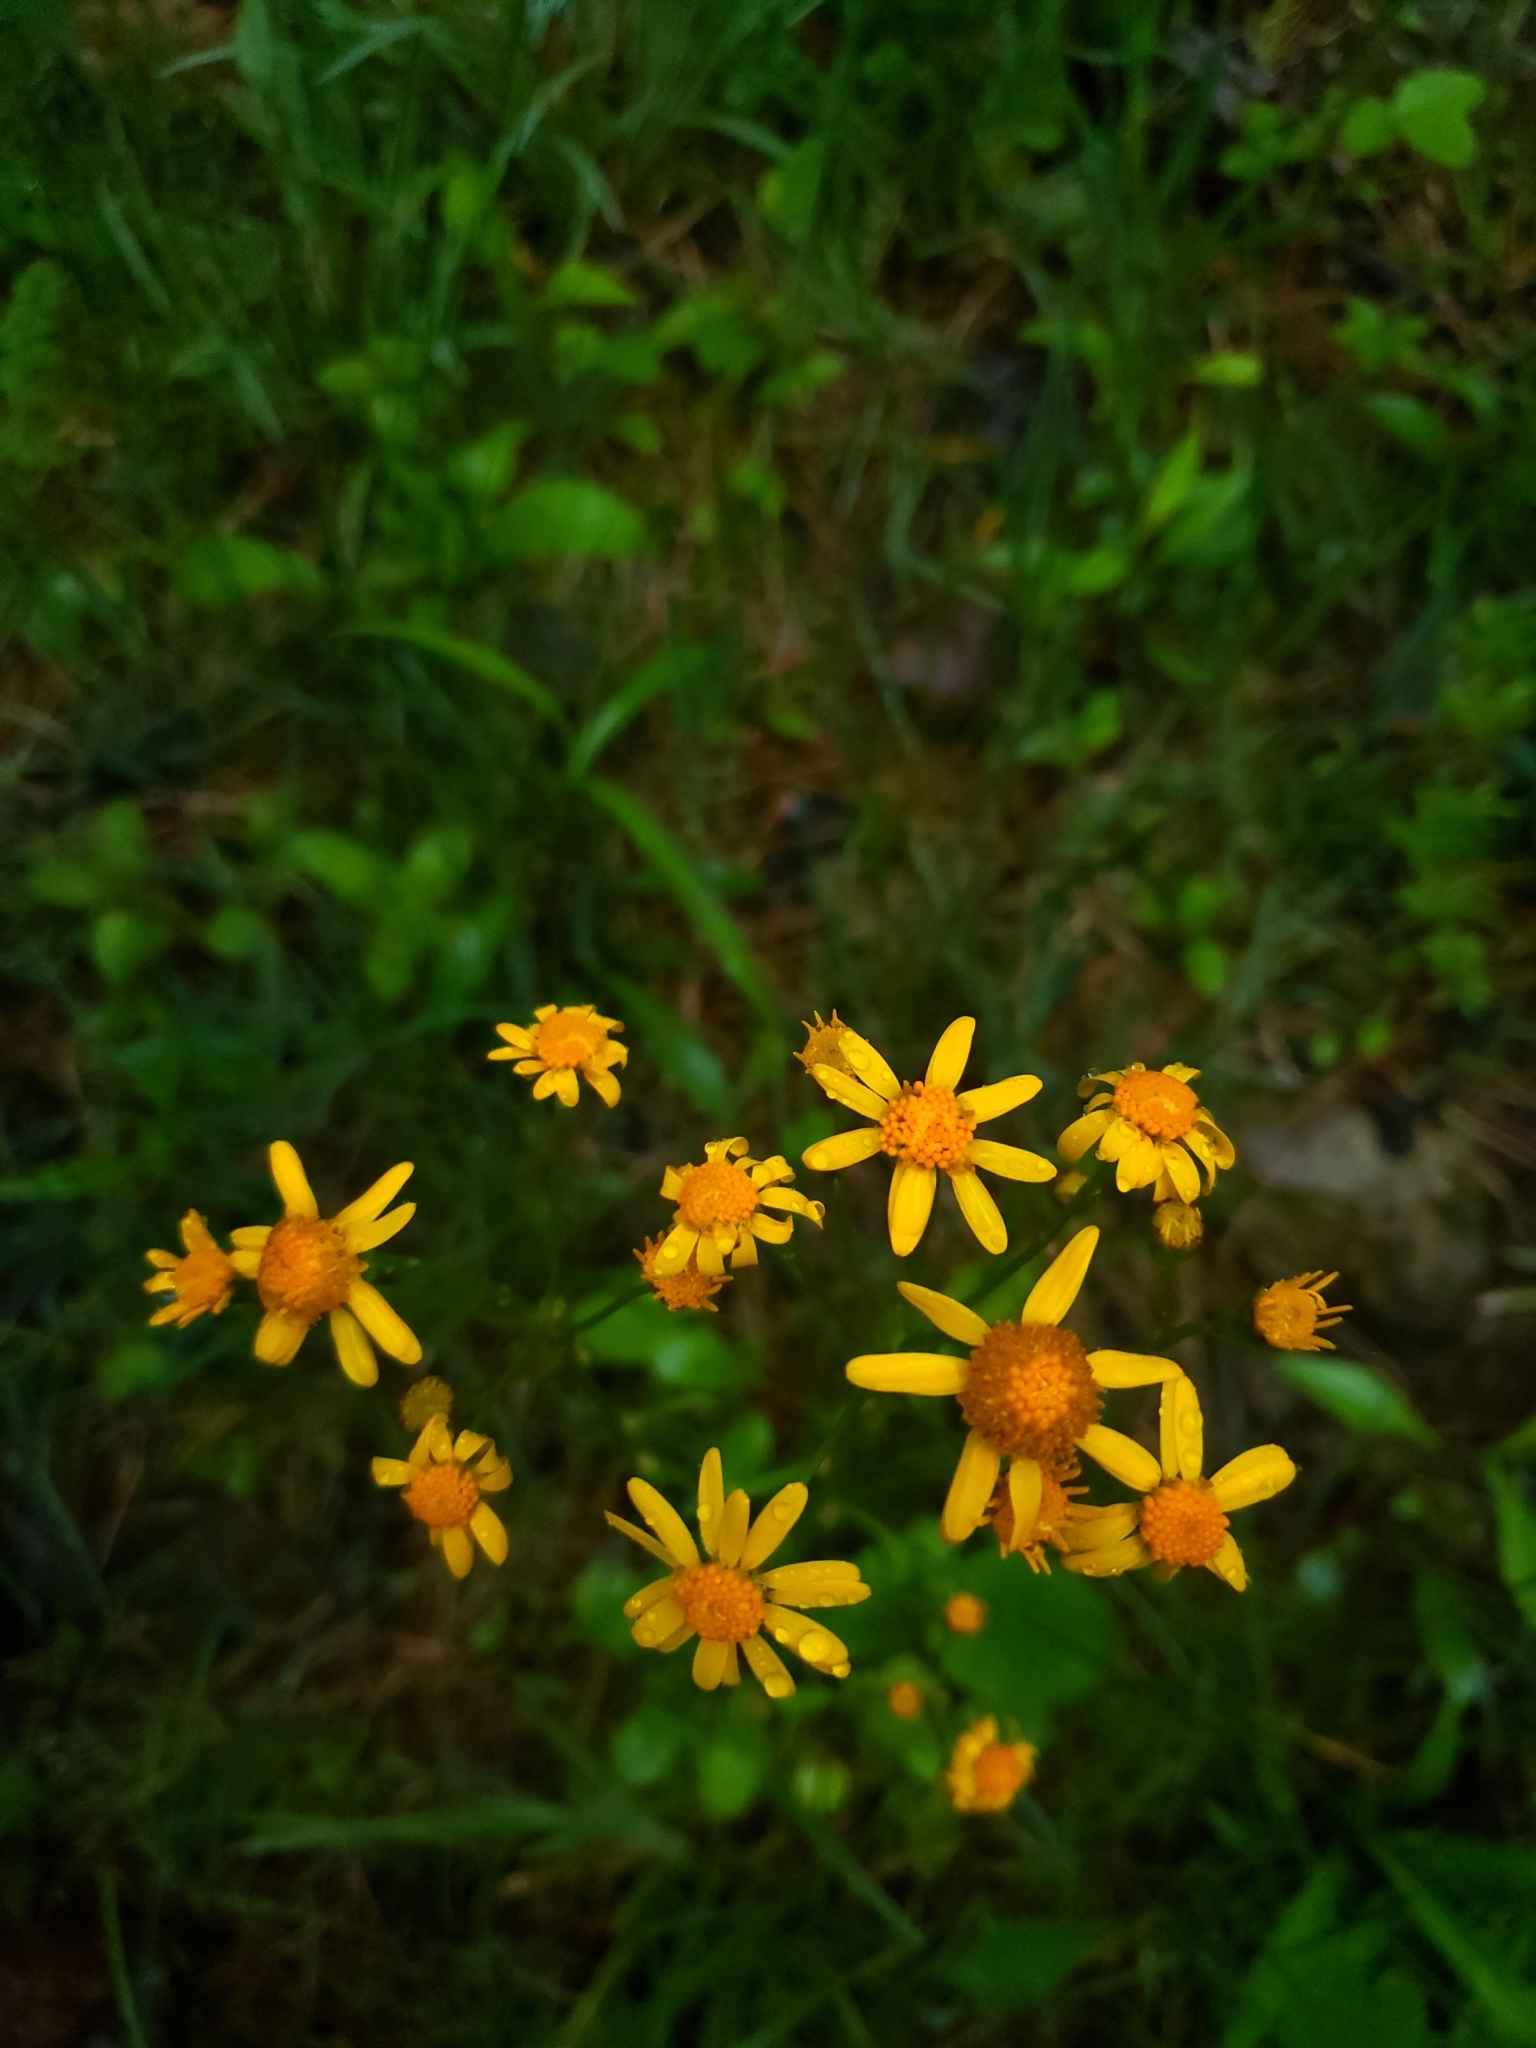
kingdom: Plantae
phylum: Tracheophyta
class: Magnoliopsida
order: Asterales
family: Asteraceae
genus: Packera
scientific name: Packera aurea
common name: Golden groundsel
